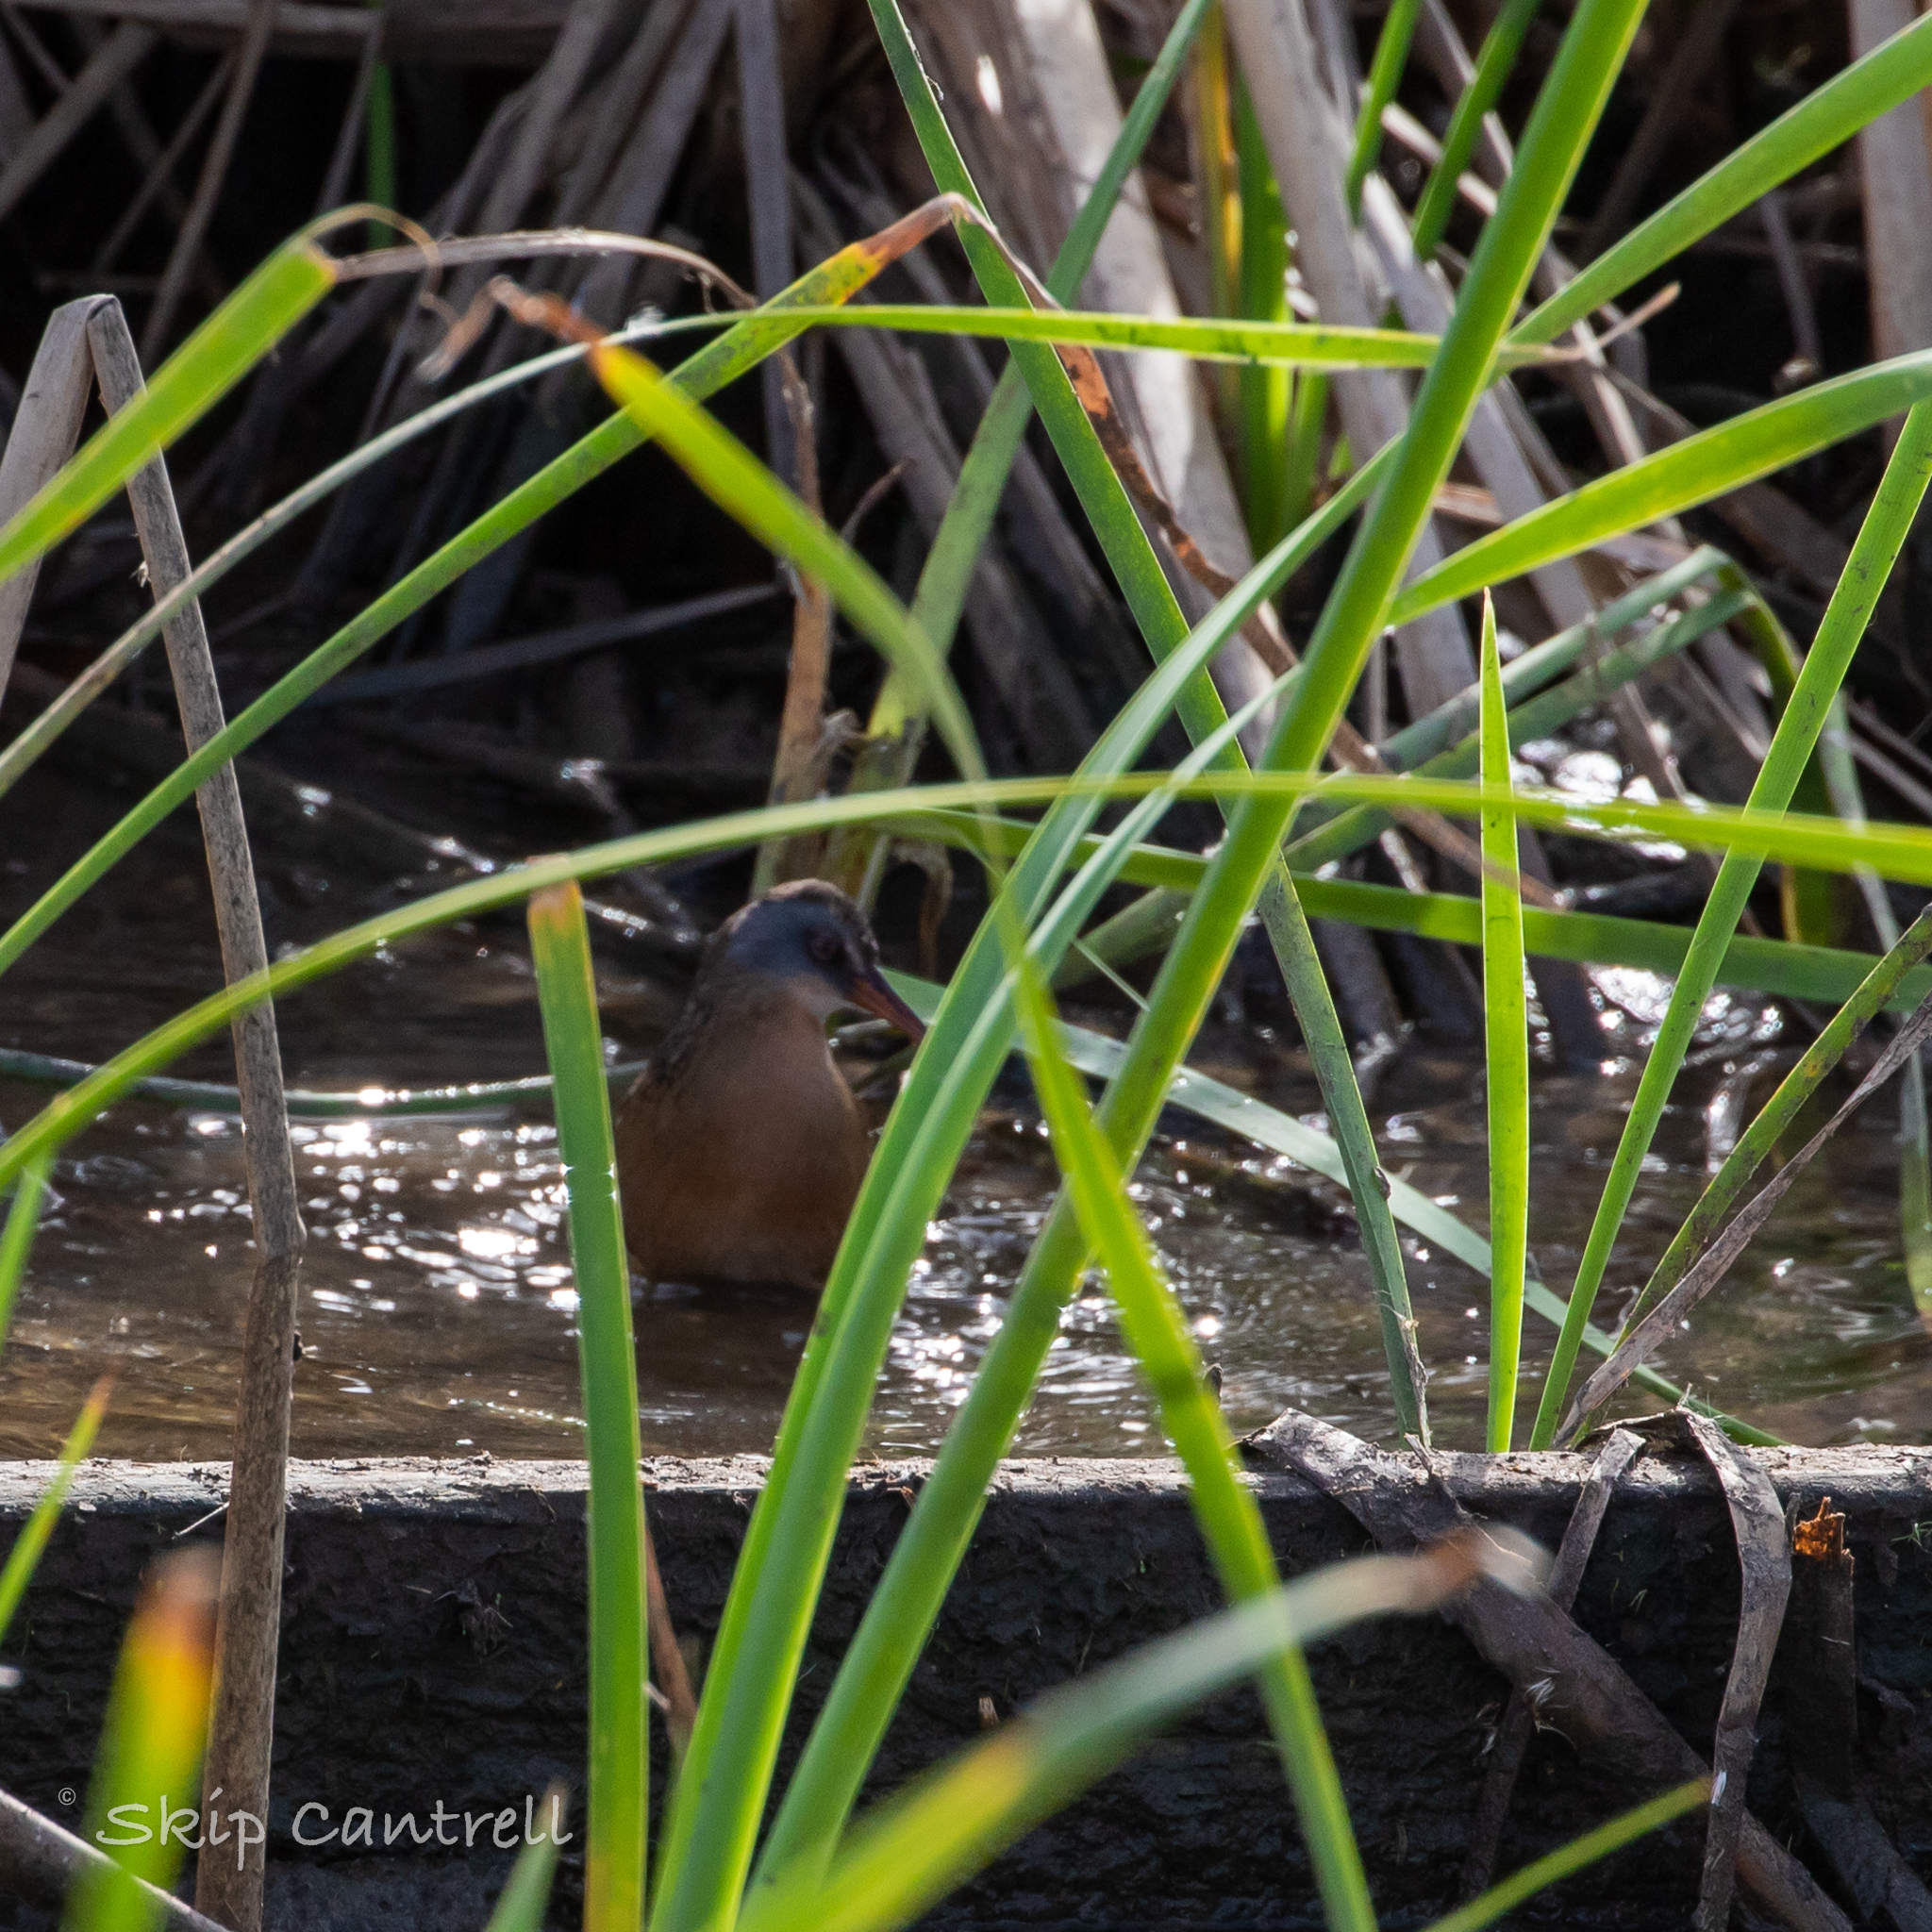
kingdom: Animalia
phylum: Chordata
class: Aves
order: Gruiformes
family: Rallidae
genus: Rallus
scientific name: Rallus limicola
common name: Virginia rail
